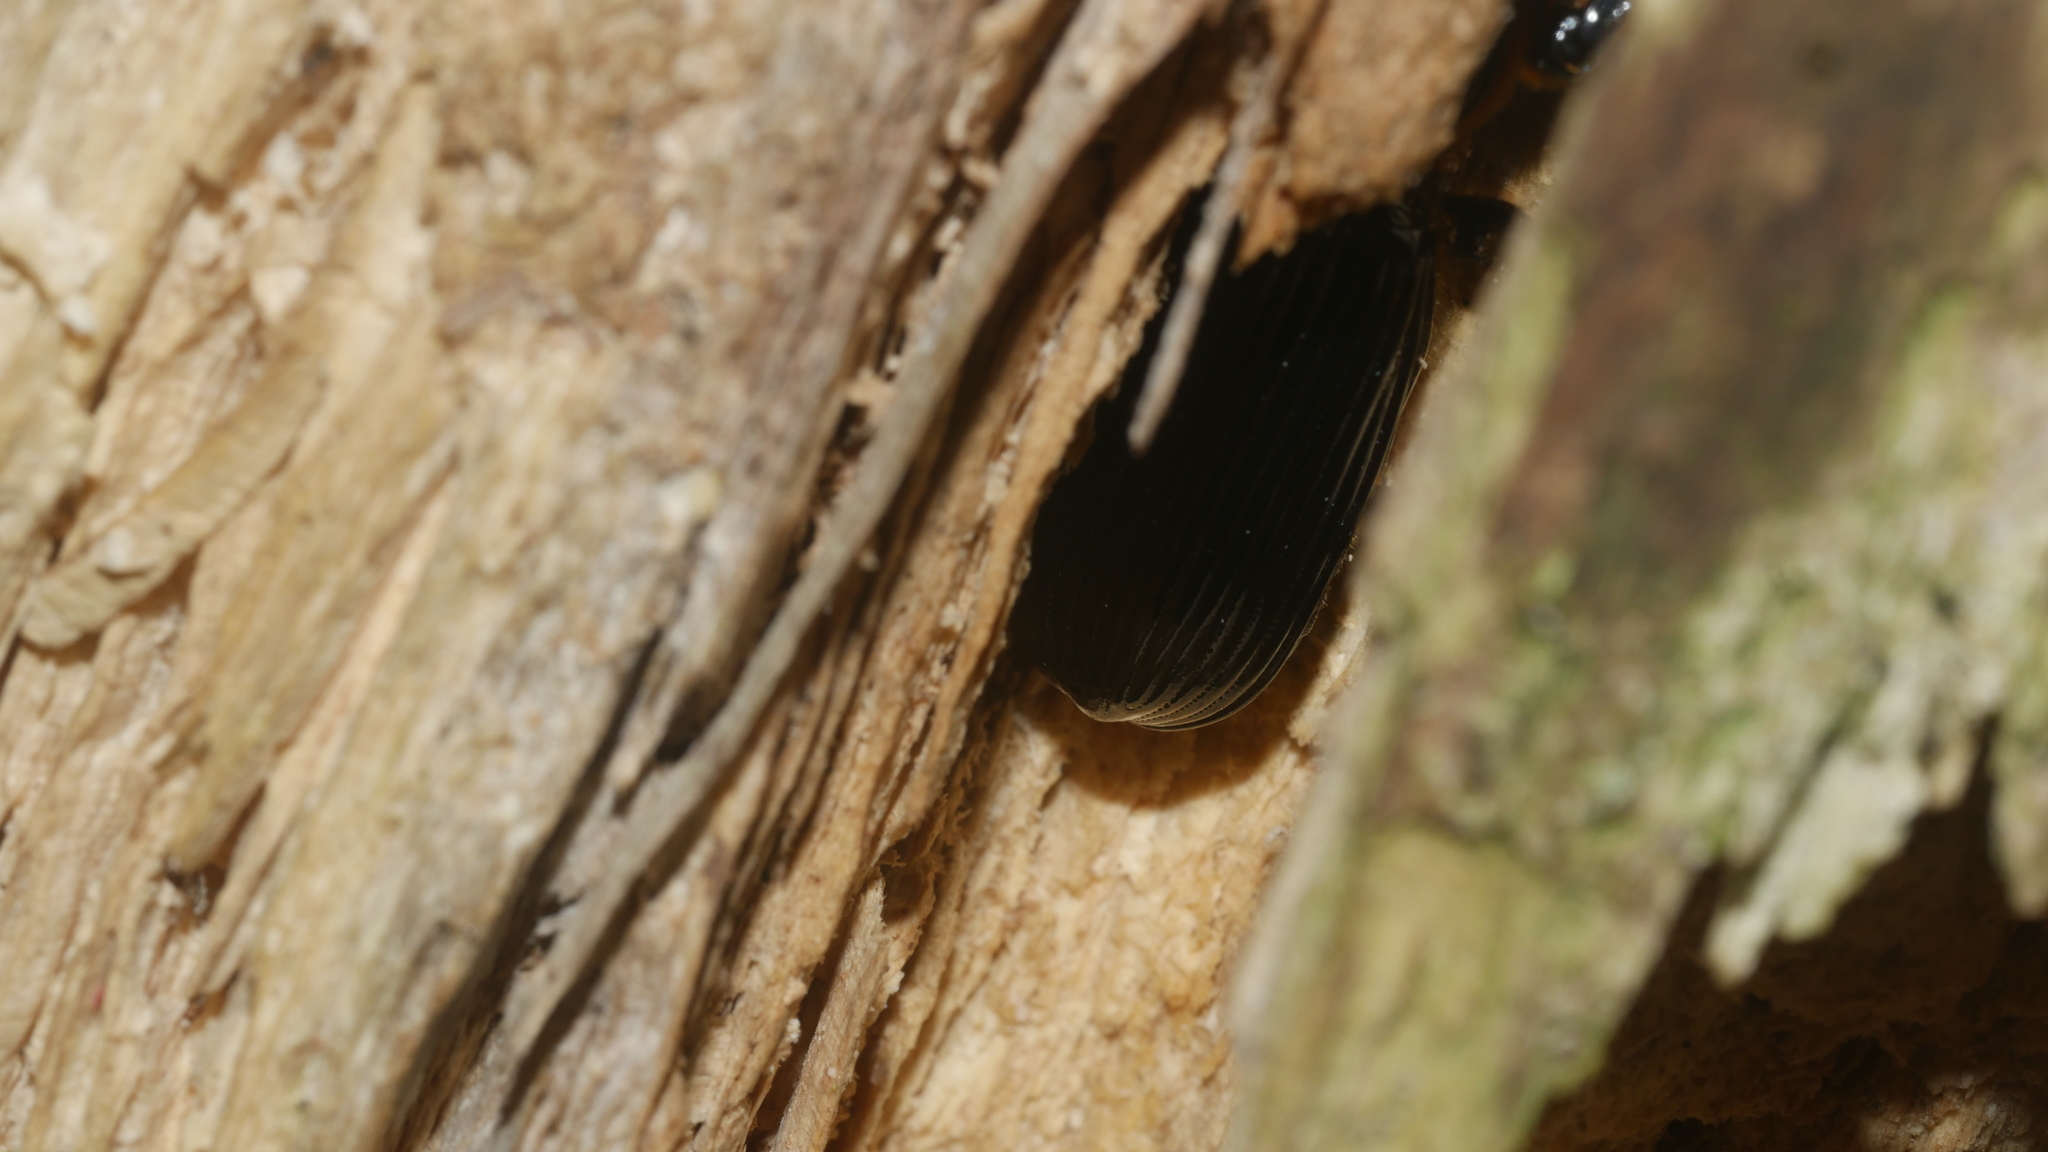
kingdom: Animalia
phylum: Arthropoda
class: Insecta
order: Coleoptera
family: Passalidae
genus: Odontotaenius
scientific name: Odontotaenius disjunctus
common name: Patent leather beetle
